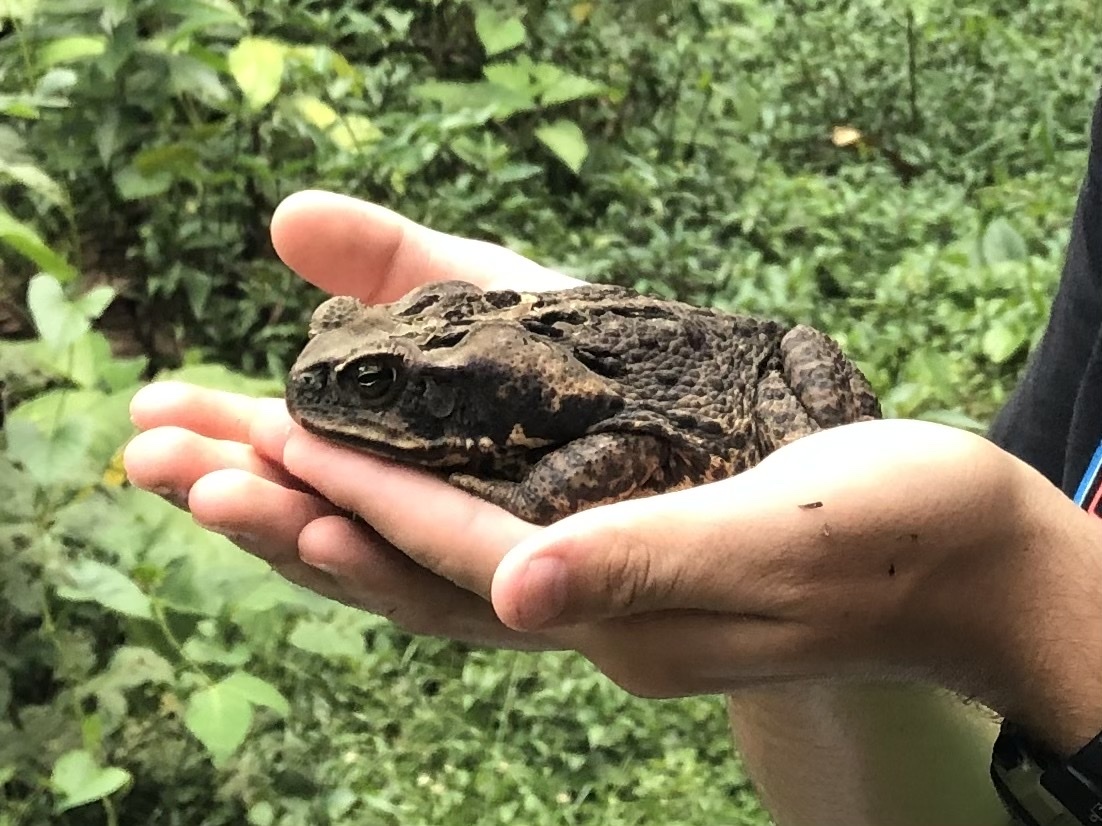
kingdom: Animalia
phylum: Chordata
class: Amphibia
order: Anura
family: Bufonidae
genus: Rhinella
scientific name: Rhinella marina
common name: Cane toad
